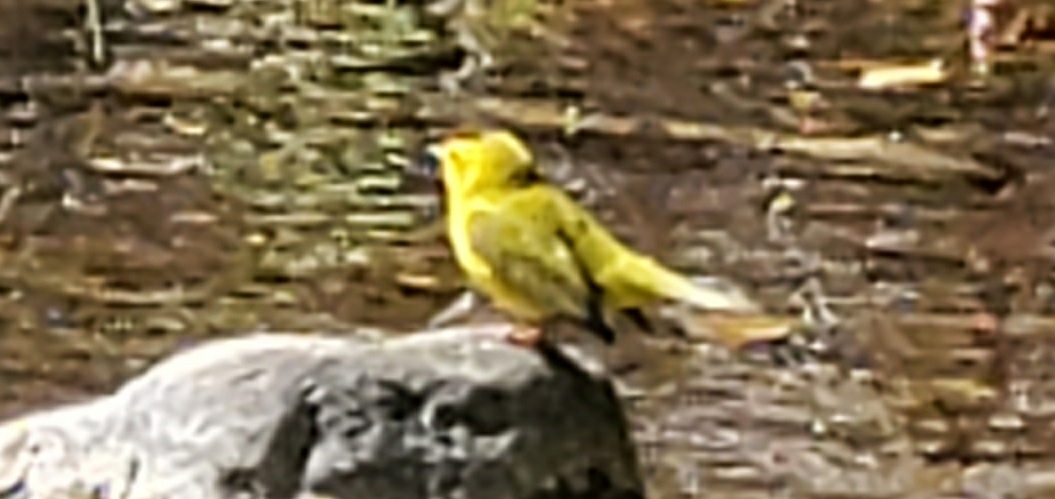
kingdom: Animalia
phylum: Chordata
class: Aves
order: Passeriformes
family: Parulidae
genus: Cardellina
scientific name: Cardellina pusilla
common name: Wilson's warbler
